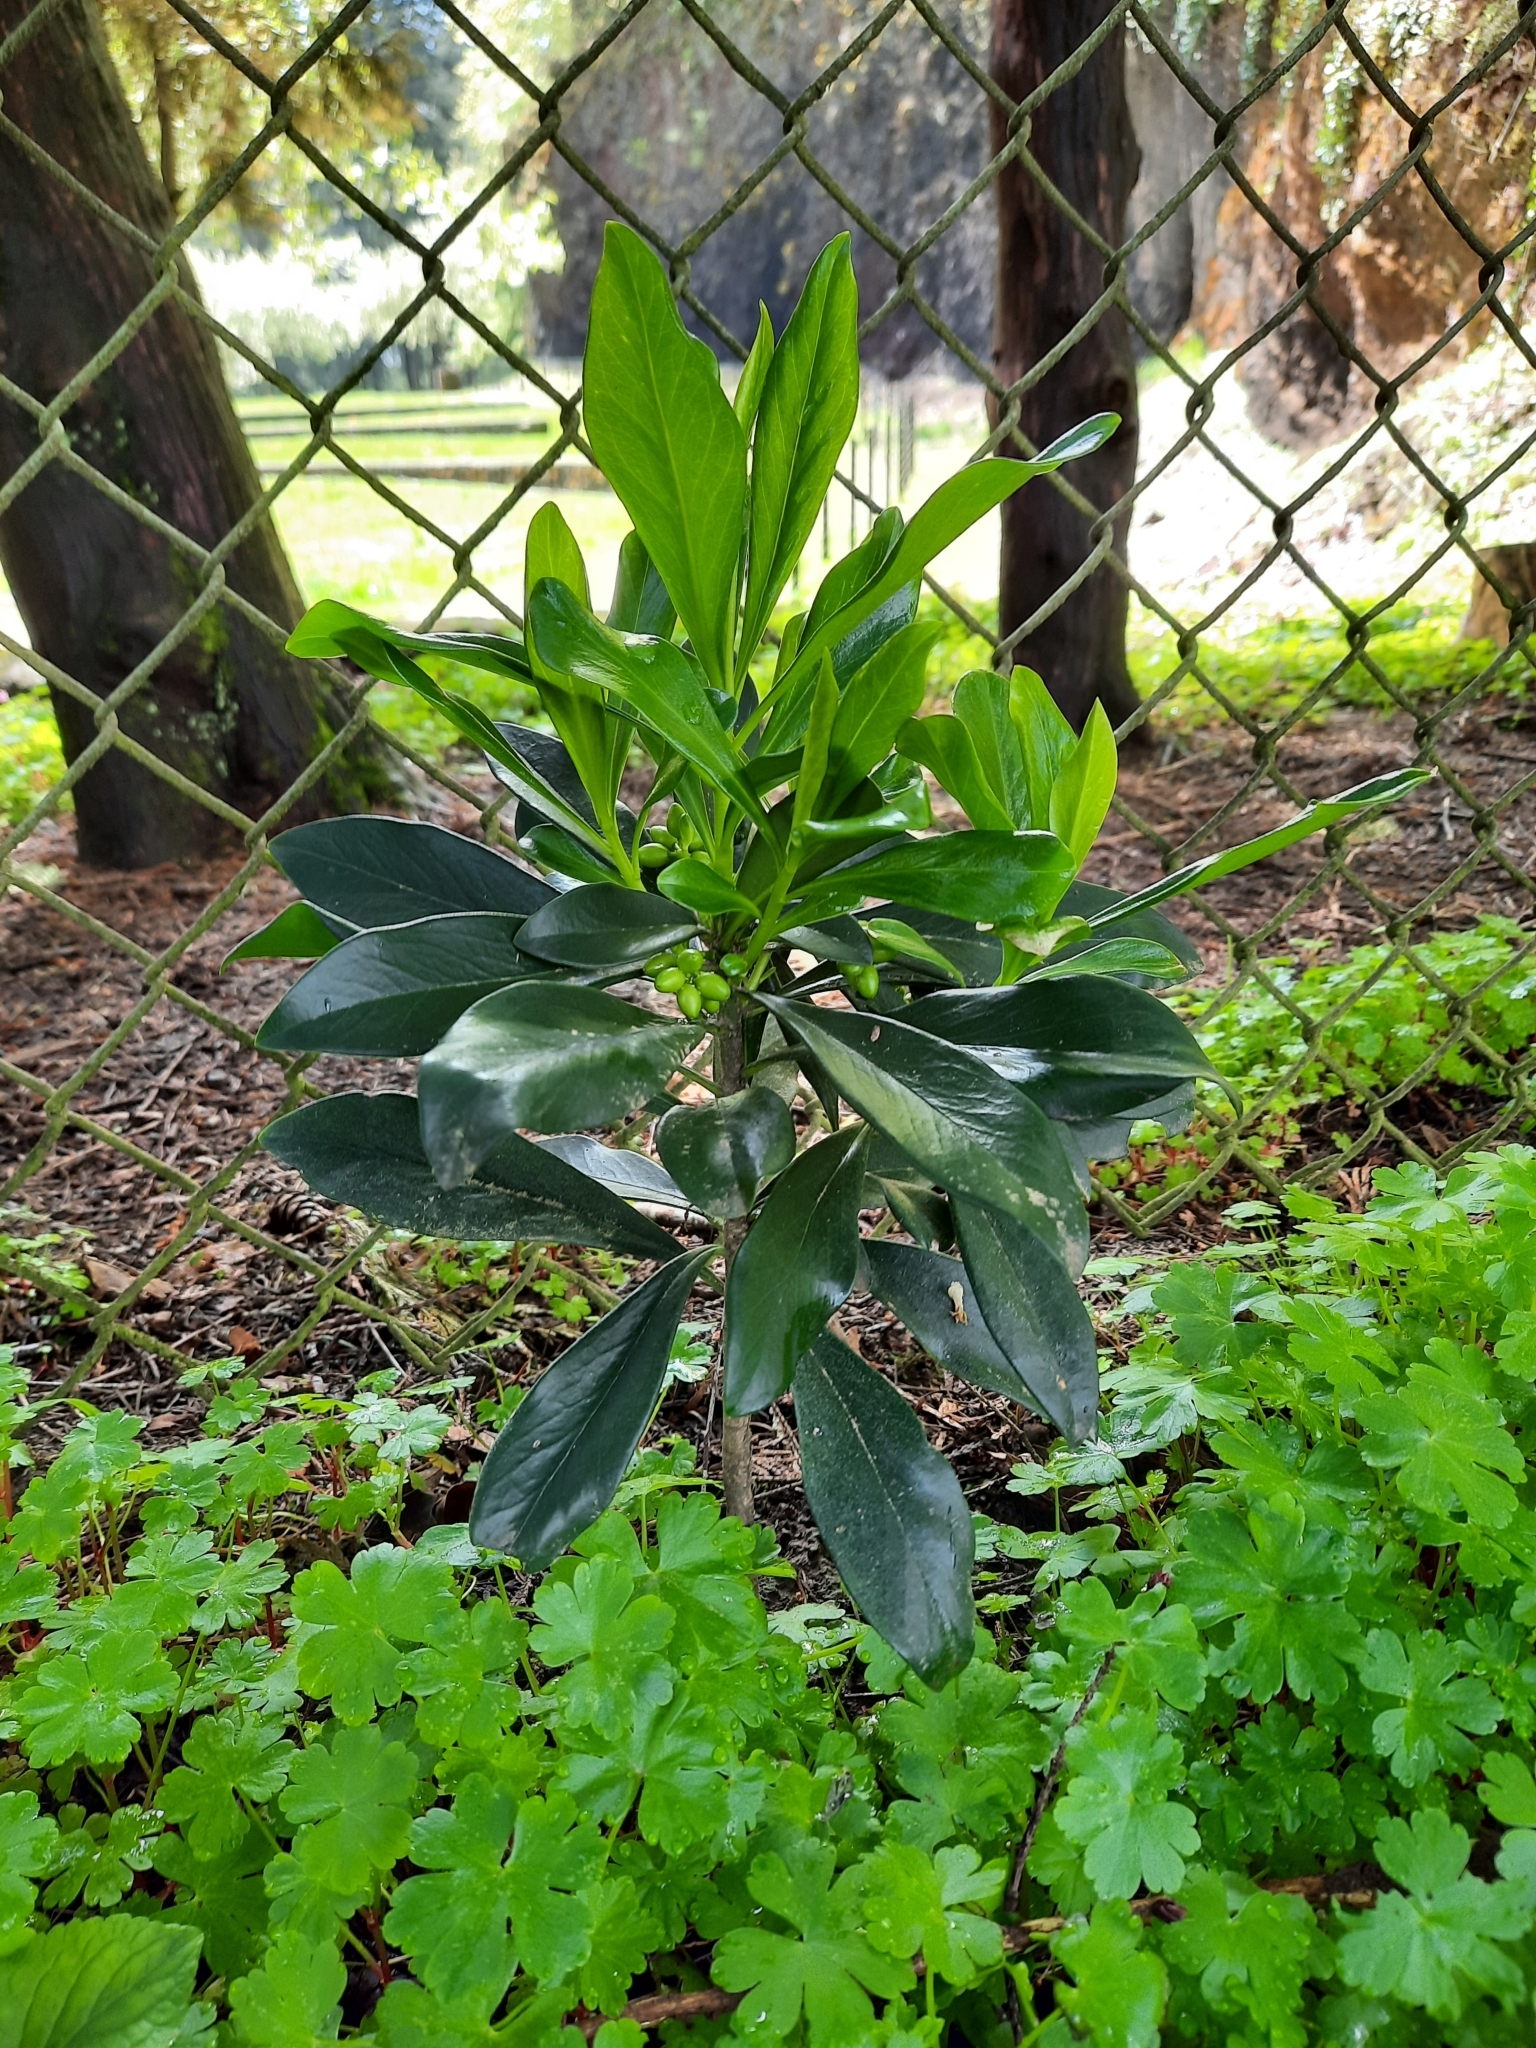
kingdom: Plantae
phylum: Tracheophyta
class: Magnoliopsida
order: Malvales
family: Thymelaeaceae
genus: Daphne
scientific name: Daphne laureola
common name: Spurge-laurel
